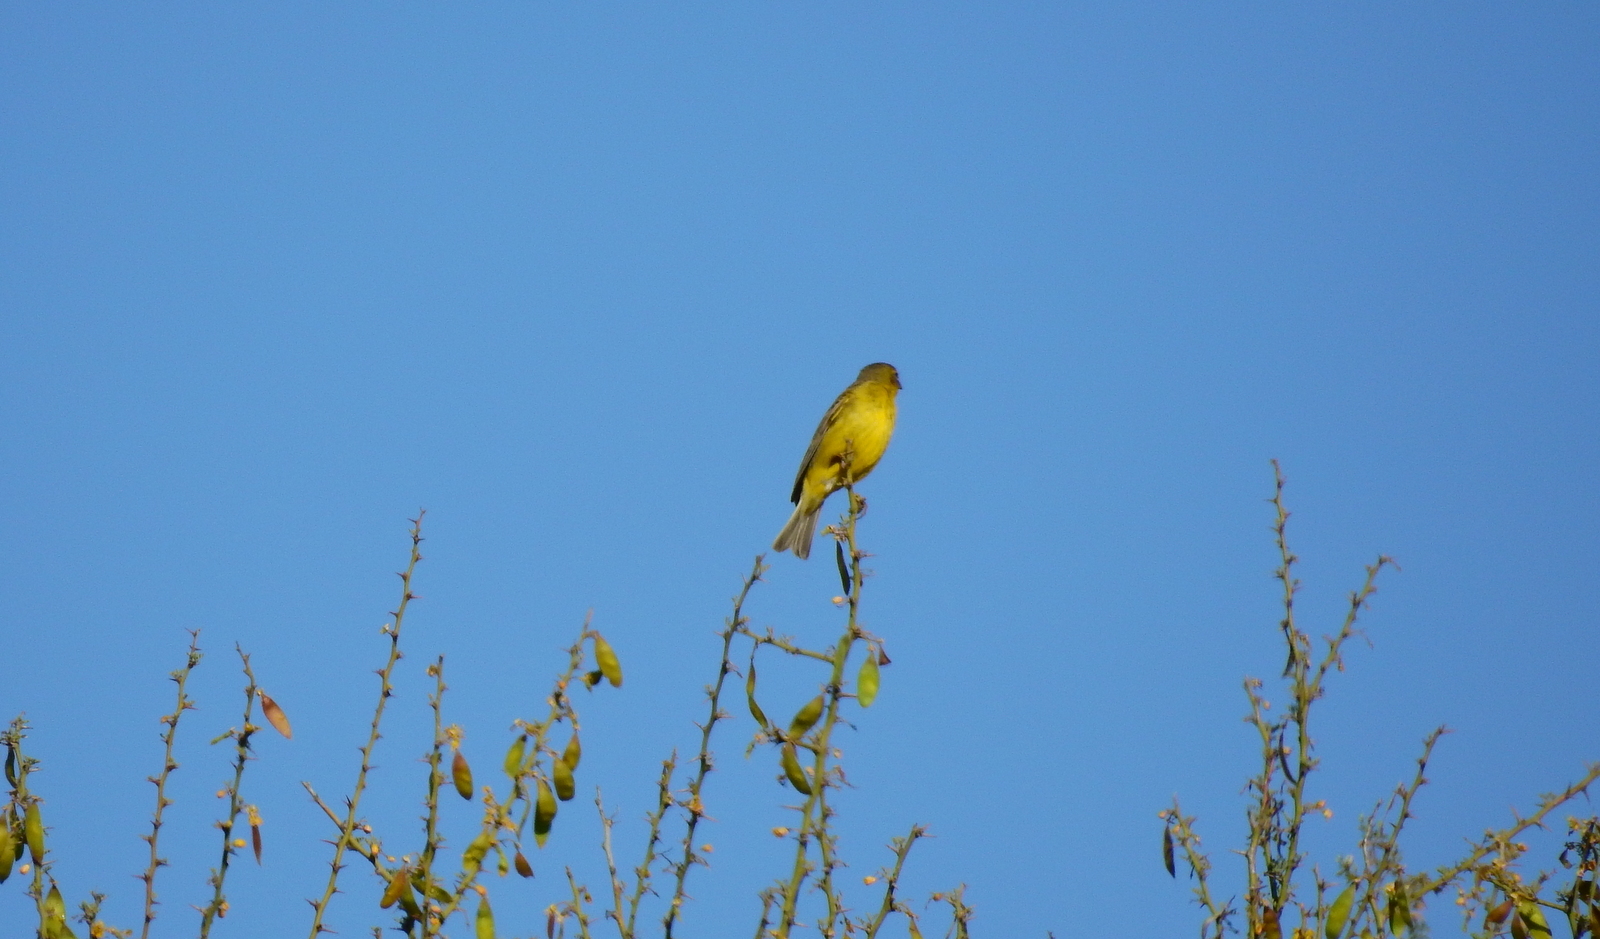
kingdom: Animalia
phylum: Chordata
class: Aves
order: Passeriformes
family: Thraupidae
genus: Sicalis
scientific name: Sicalis luteola
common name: Grassland yellow-finch
